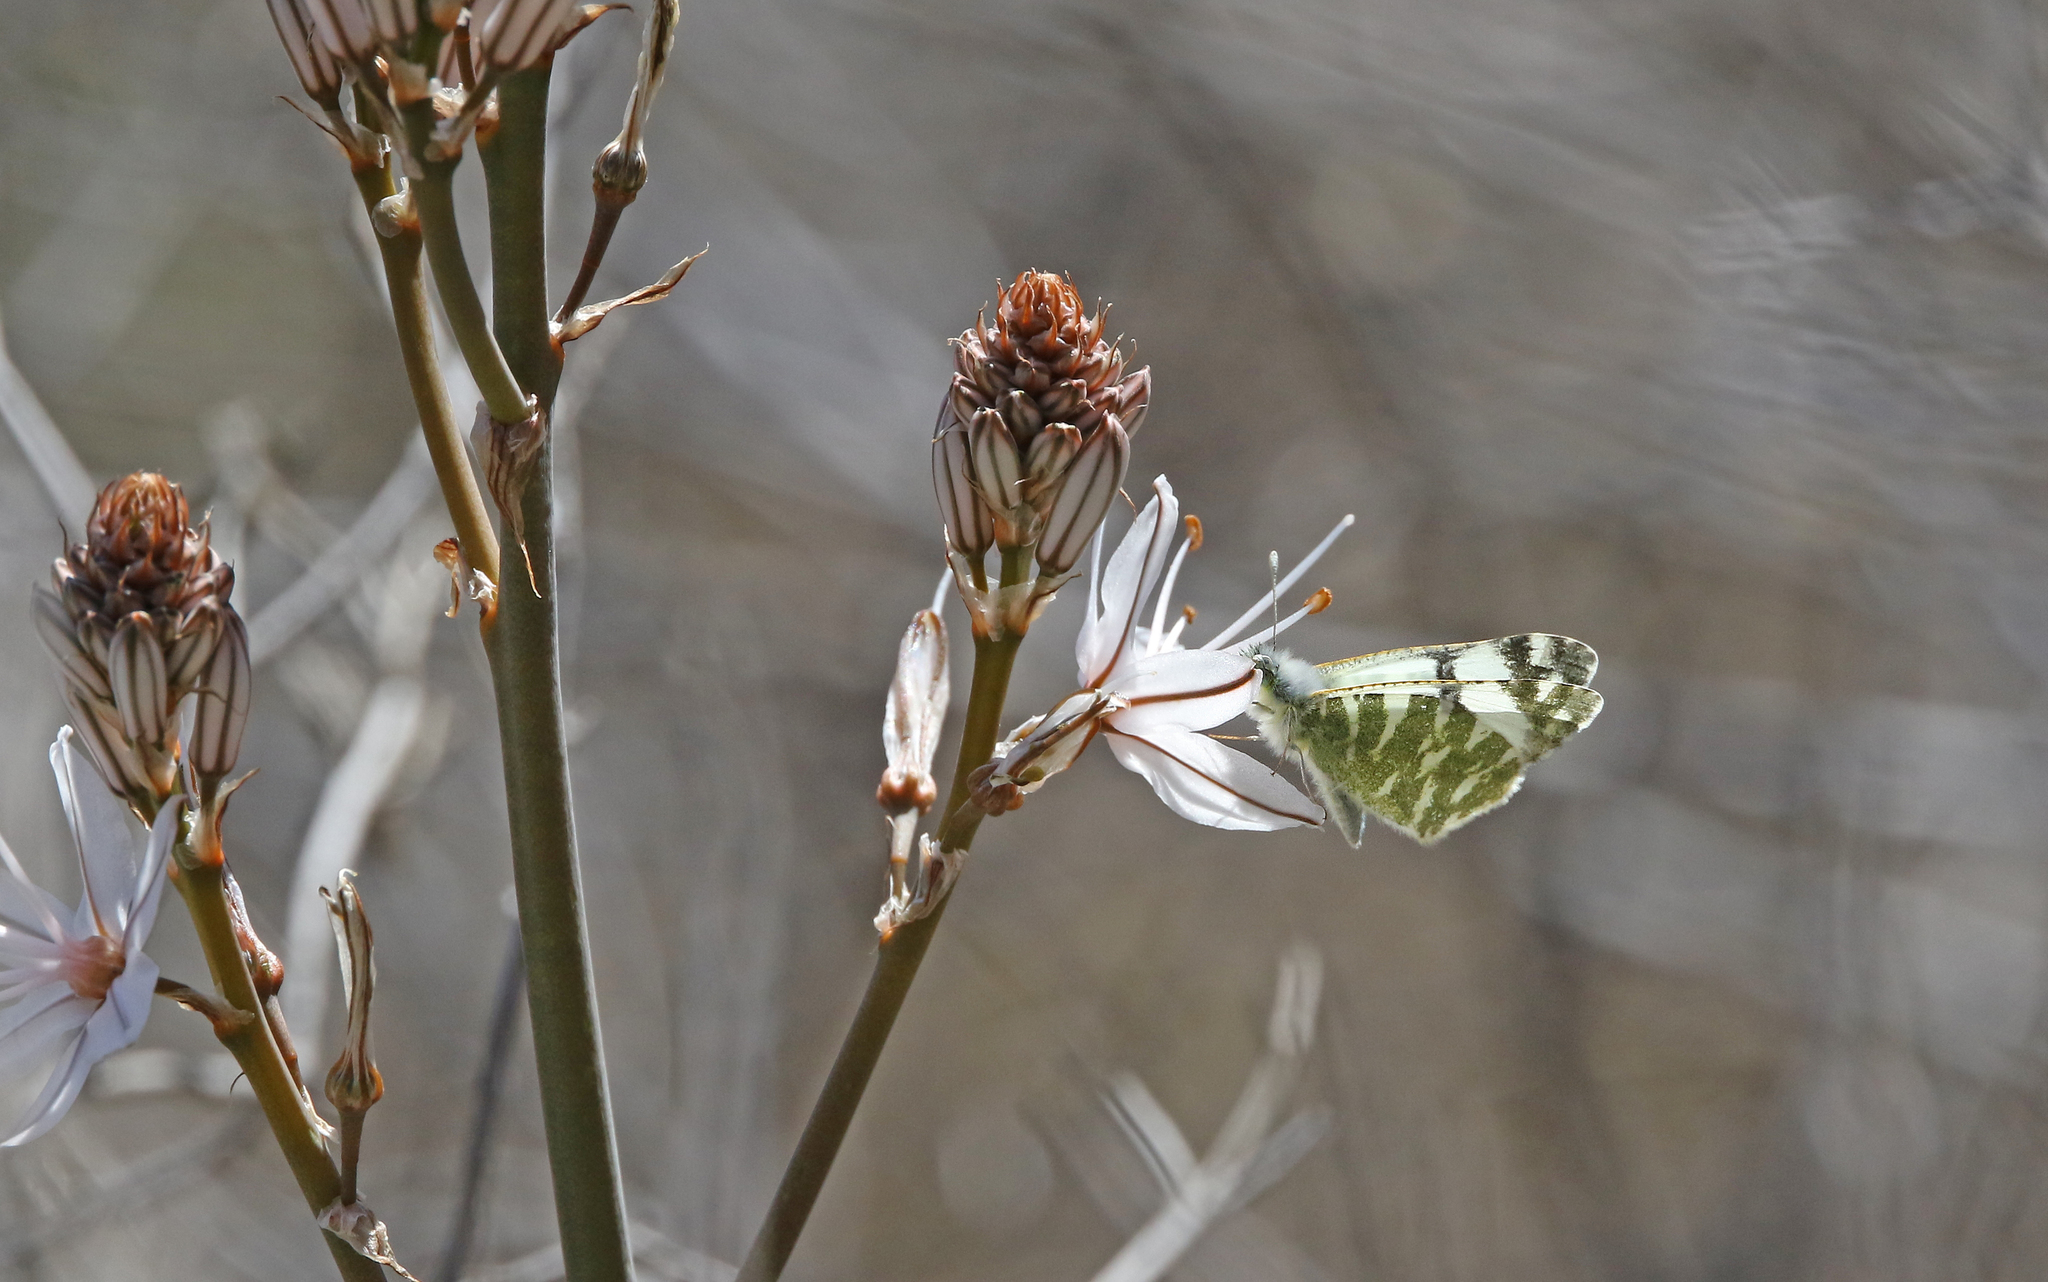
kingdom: Animalia
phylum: Arthropoda
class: Insecta
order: Lepidoptera
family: Pieridae
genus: Euchloe
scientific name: Euchloe grancanariensis
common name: Gran canaria green-striped white
